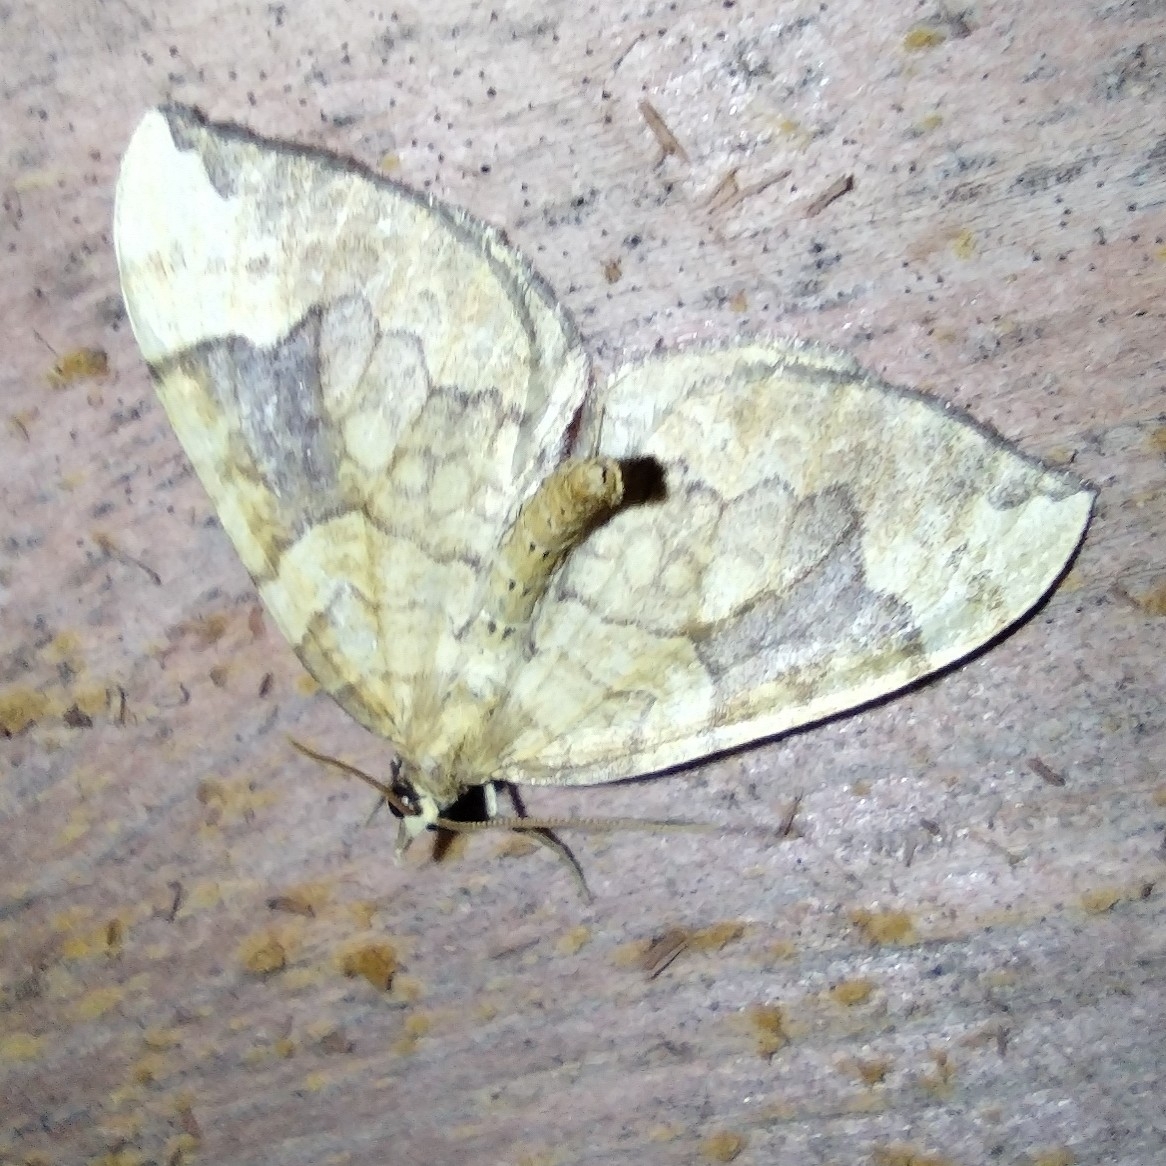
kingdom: Animalia
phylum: Arthropoda
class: Insecta
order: Lepidoptera
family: Geometridae
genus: Eulithis
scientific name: Eulithis populata
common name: Northern spinach
